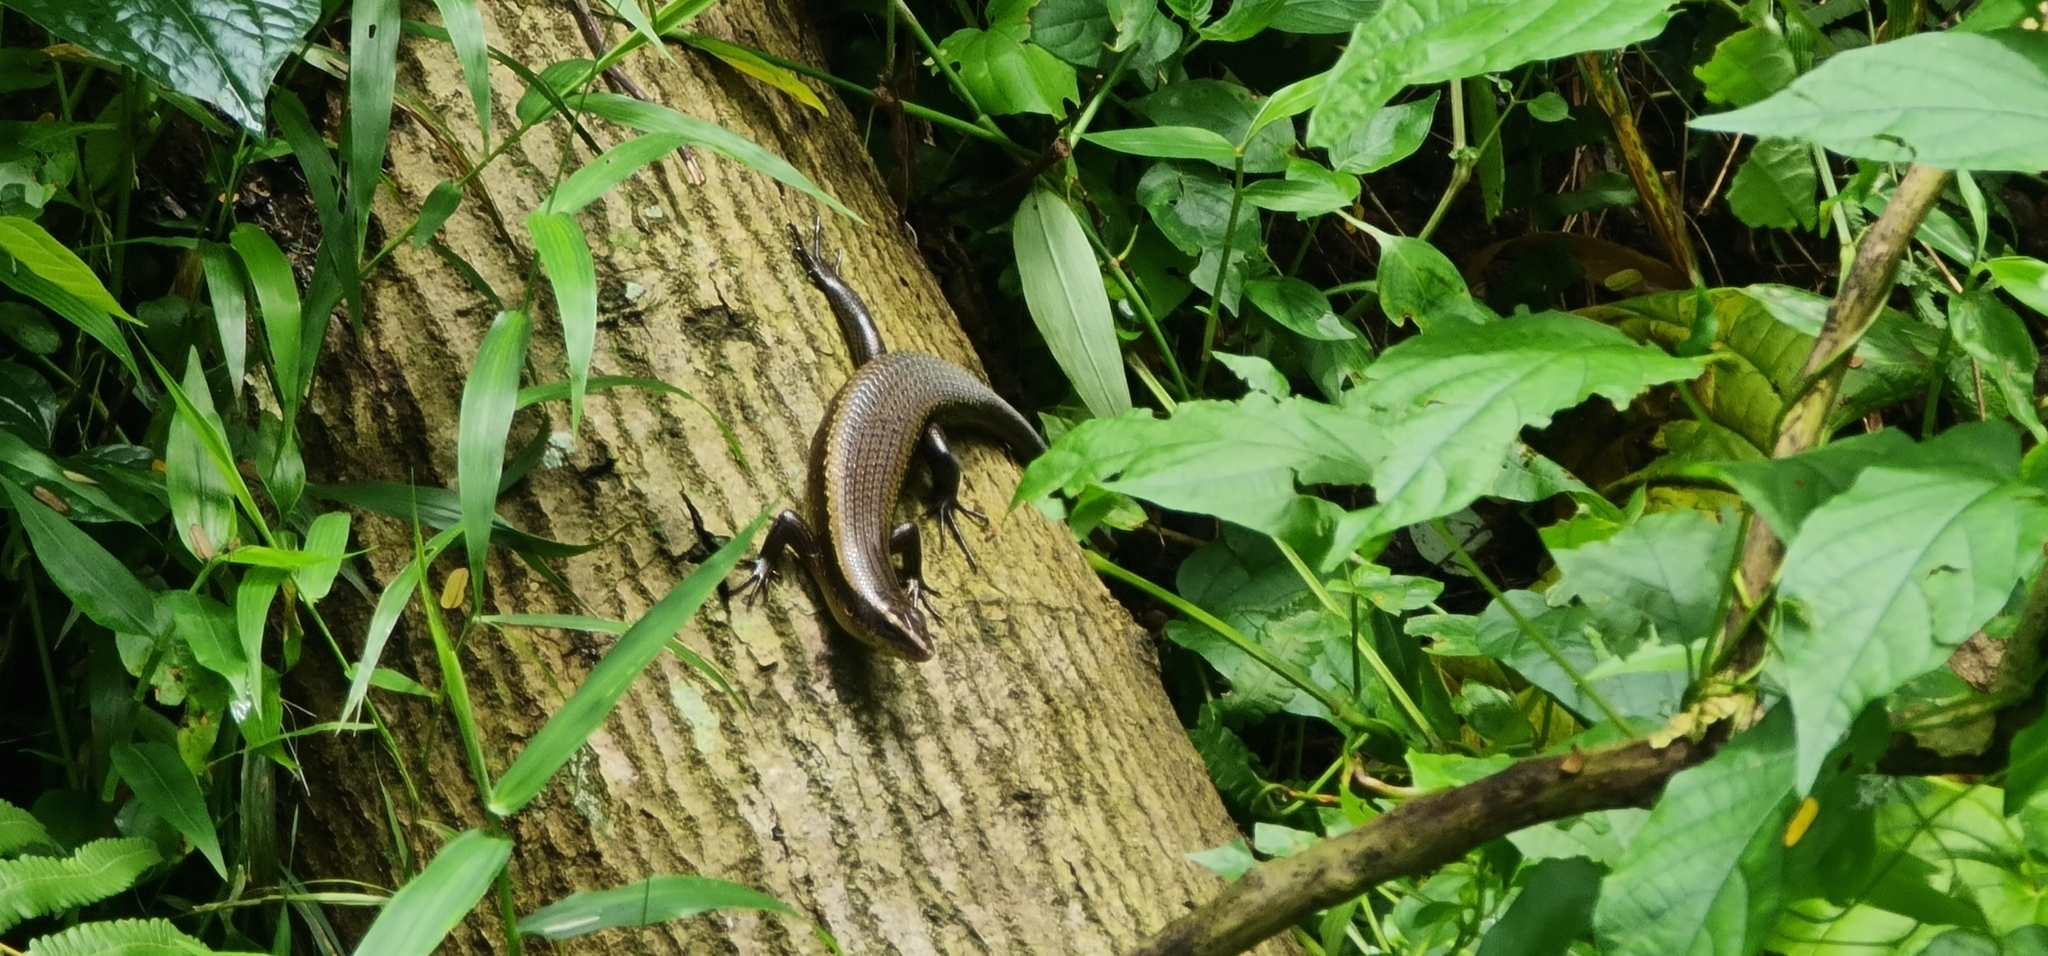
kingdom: Animalia
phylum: Chordata
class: Squamata
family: Scincidae
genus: Eutropis
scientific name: Eutropis multifasciata
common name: Common mabuya
